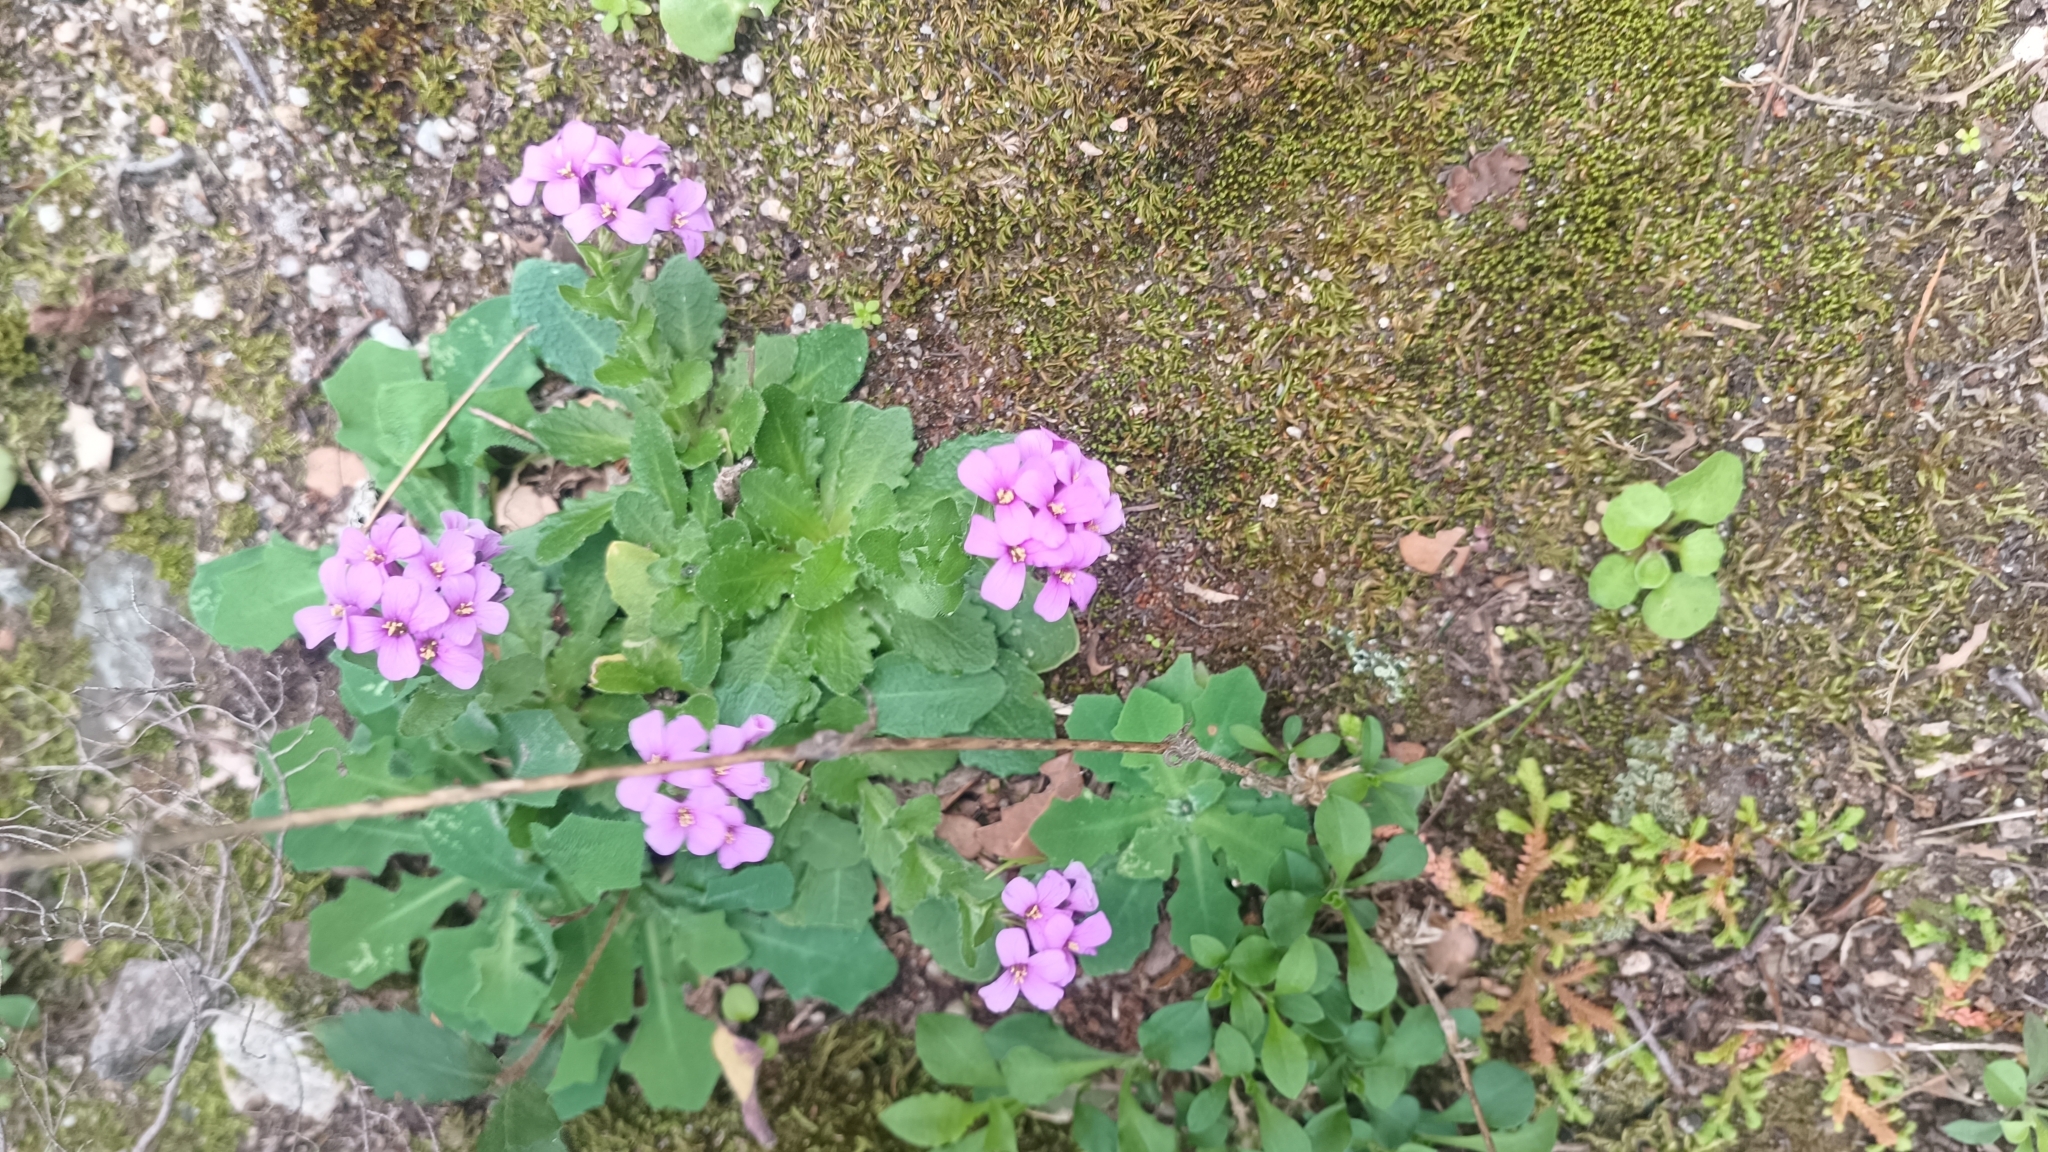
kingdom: Plantae
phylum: Tracheophyta
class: Magnoliopsida
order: Brassicales
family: Brassicaceae
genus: Arabis
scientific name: Arabis collina
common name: Rosy cress
